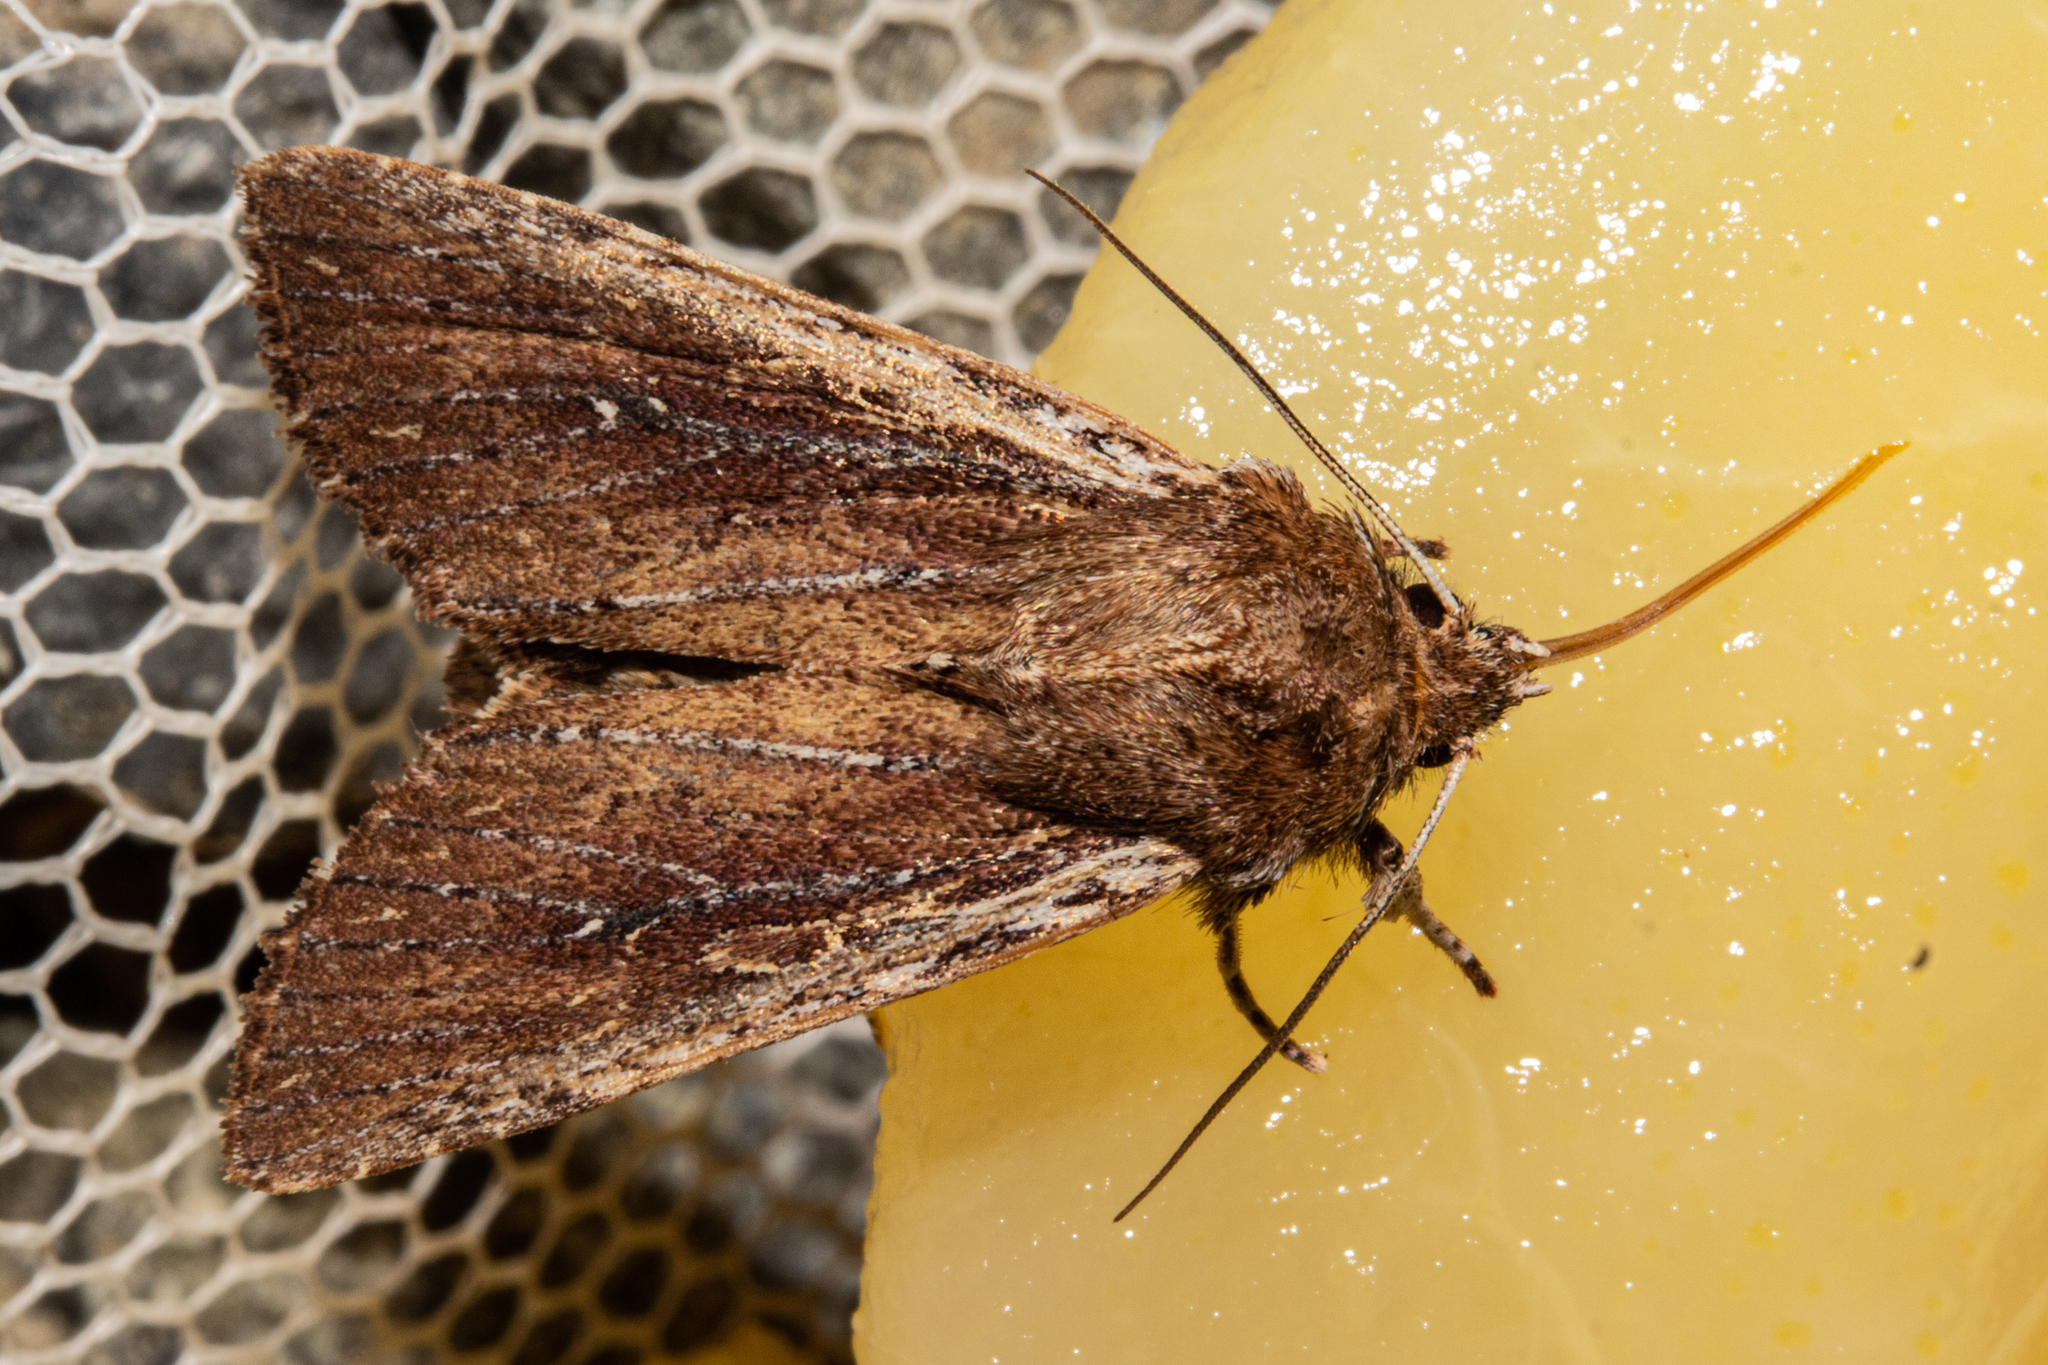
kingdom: Animalia
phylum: Arthropoda
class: Insecta
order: Lepidoptera
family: Noctuidae
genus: Ichneutica
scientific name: Ichneutica
